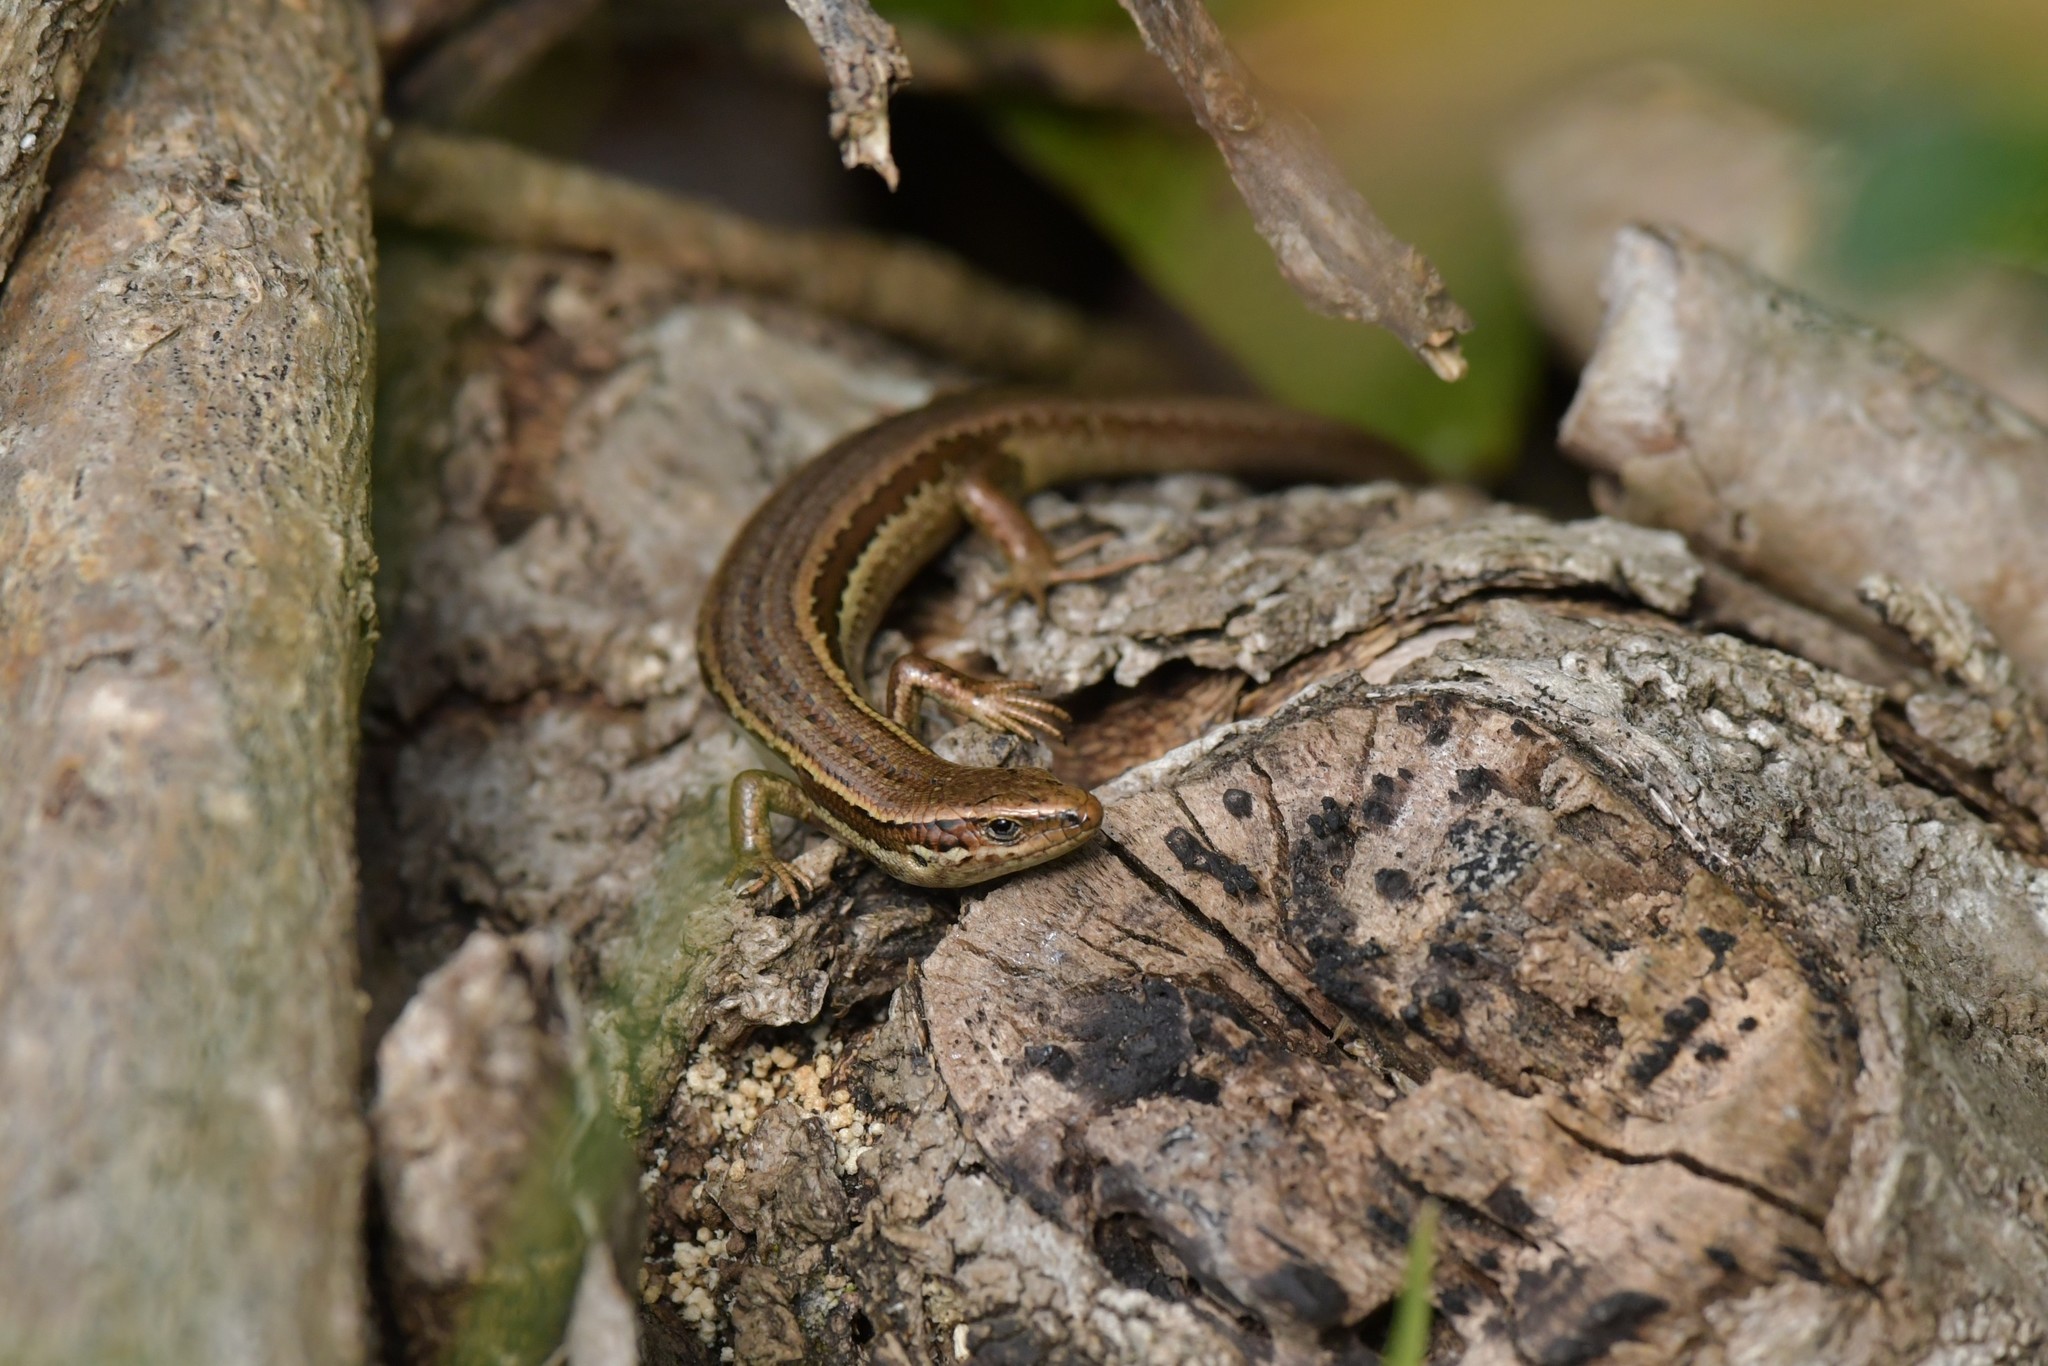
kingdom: Animalia
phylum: Chordata
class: Squamata
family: Scincidae
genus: Oligosoma
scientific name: Oligosoma polychroma
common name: Common new zealand skink
